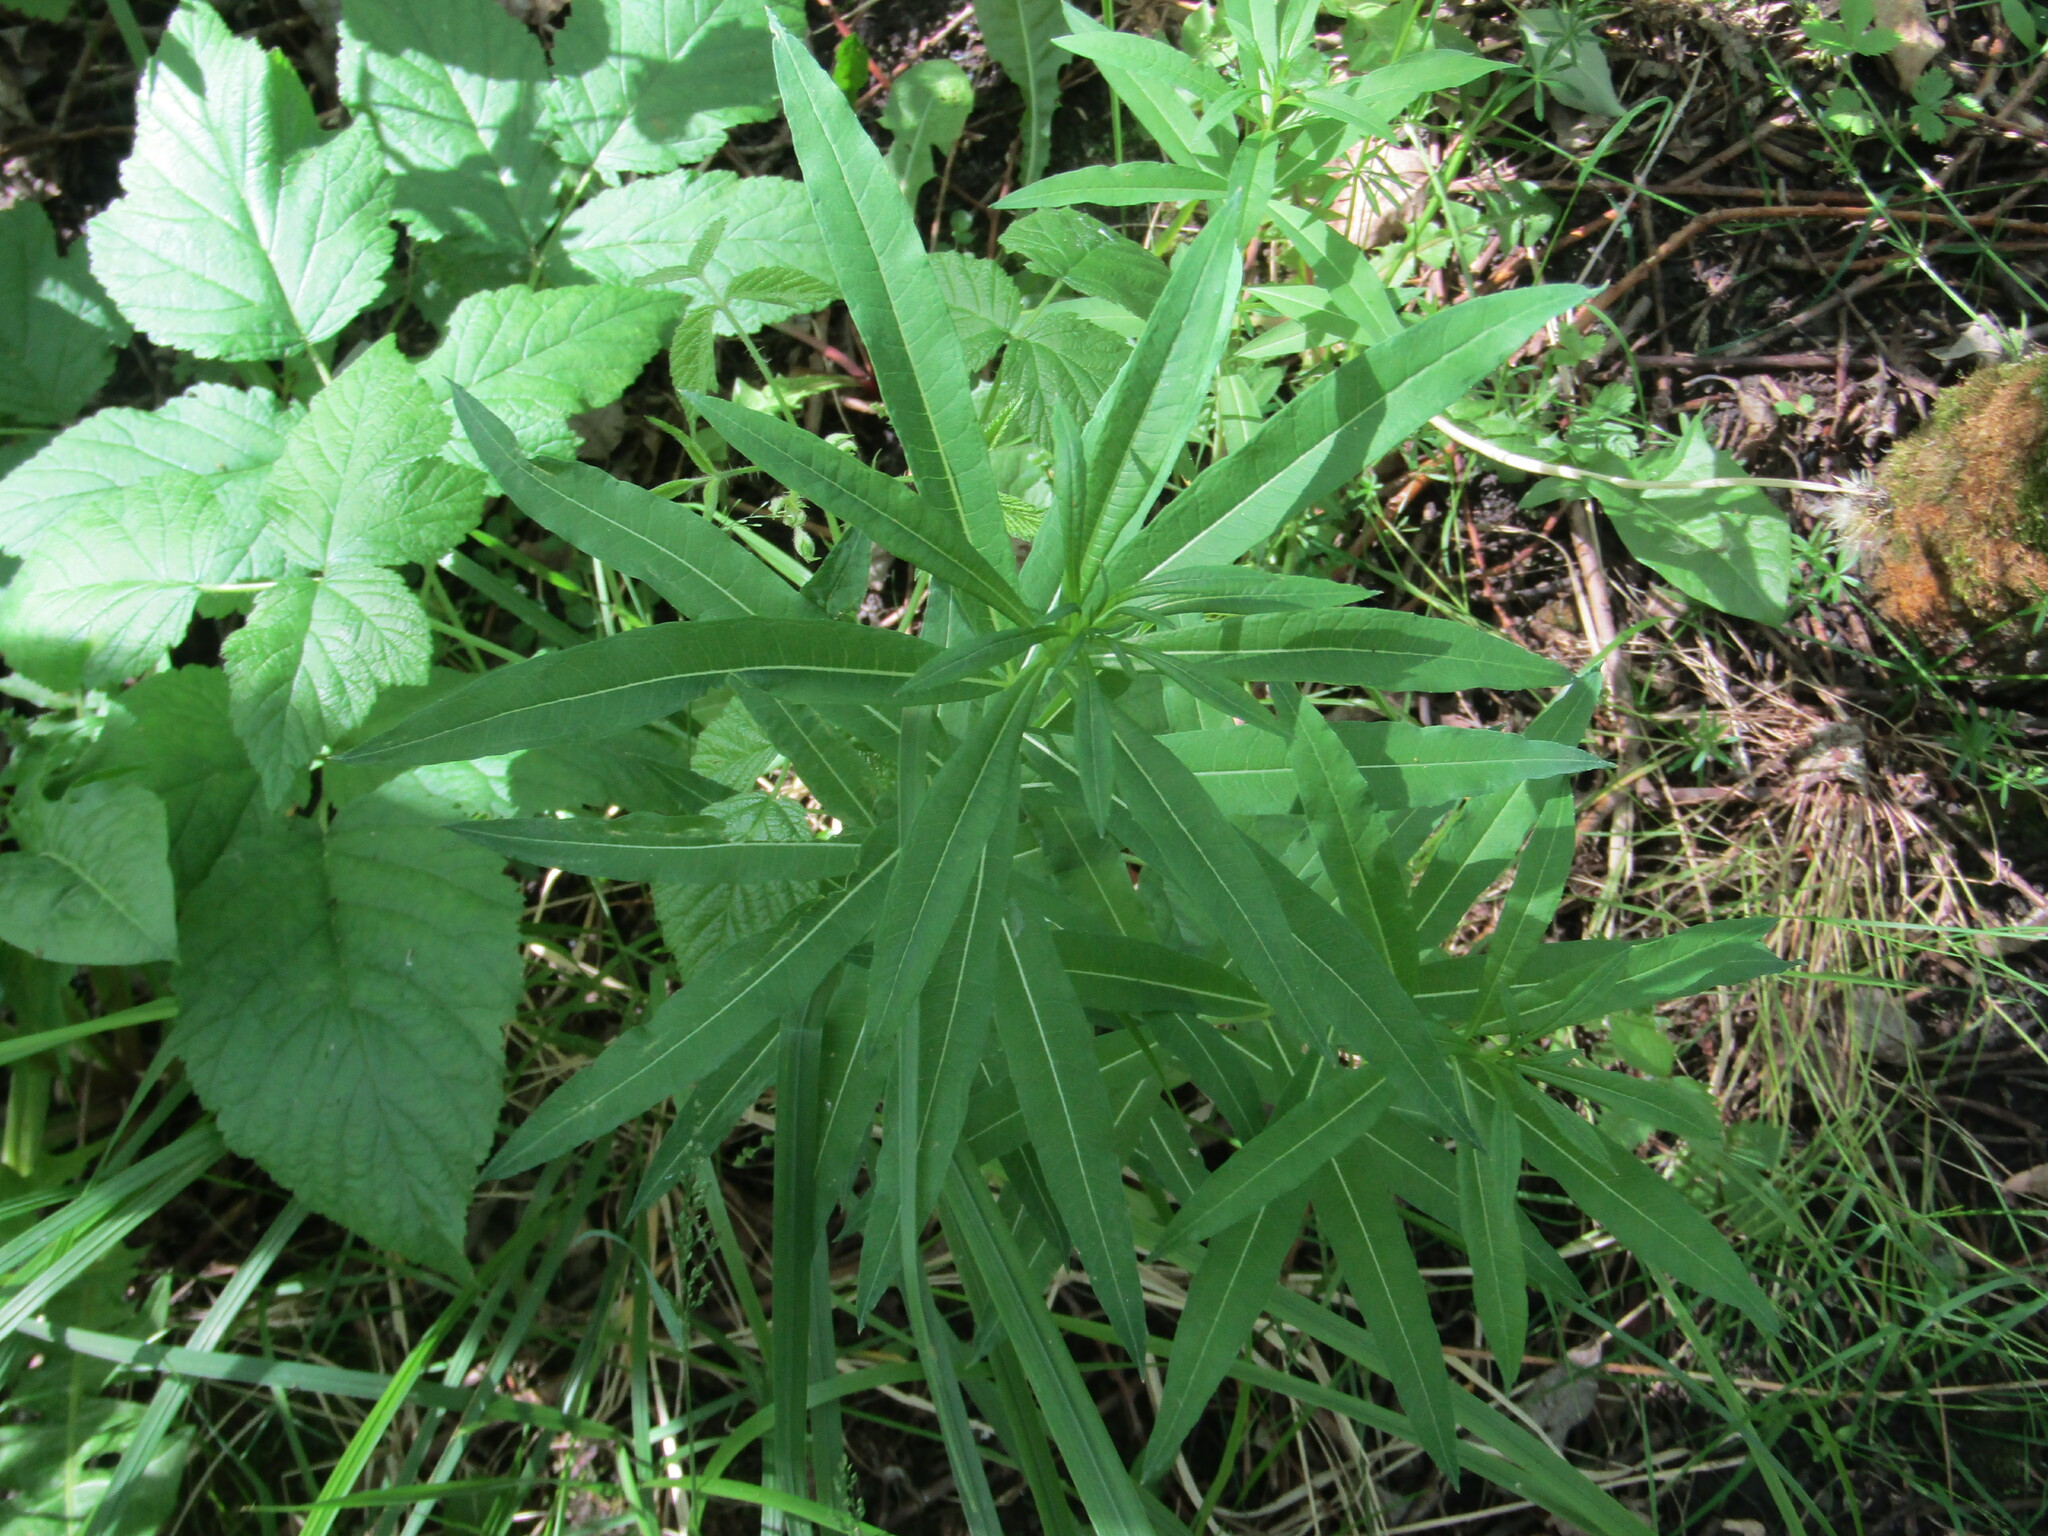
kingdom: Plantae
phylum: Tracheophyta
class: Magnoliopsida
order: Myrtales
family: Onagraceae
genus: Chamaenerion
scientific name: Chamaenerion angustifolium
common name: Fireweed
